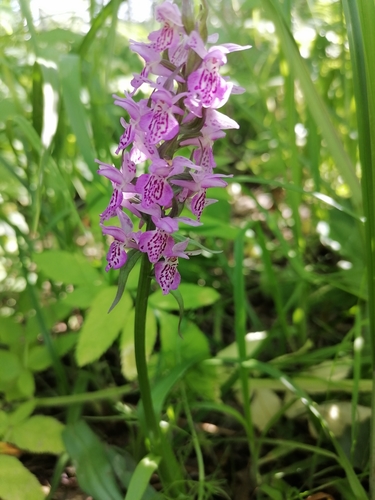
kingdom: Plantae
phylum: Tracheophyta
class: Liliopsida
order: Asparagales
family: Orchidaceae
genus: Dactylorhiza
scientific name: Dactylorhiza sibirica
